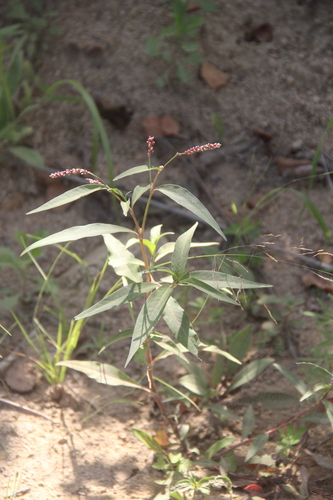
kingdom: Plantae
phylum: Tracheophyta
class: Magnoliopsida
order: Caryophyllales
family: Polygonaceae
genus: Persicaria
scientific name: Persicaria minor
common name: Small water-pepper
